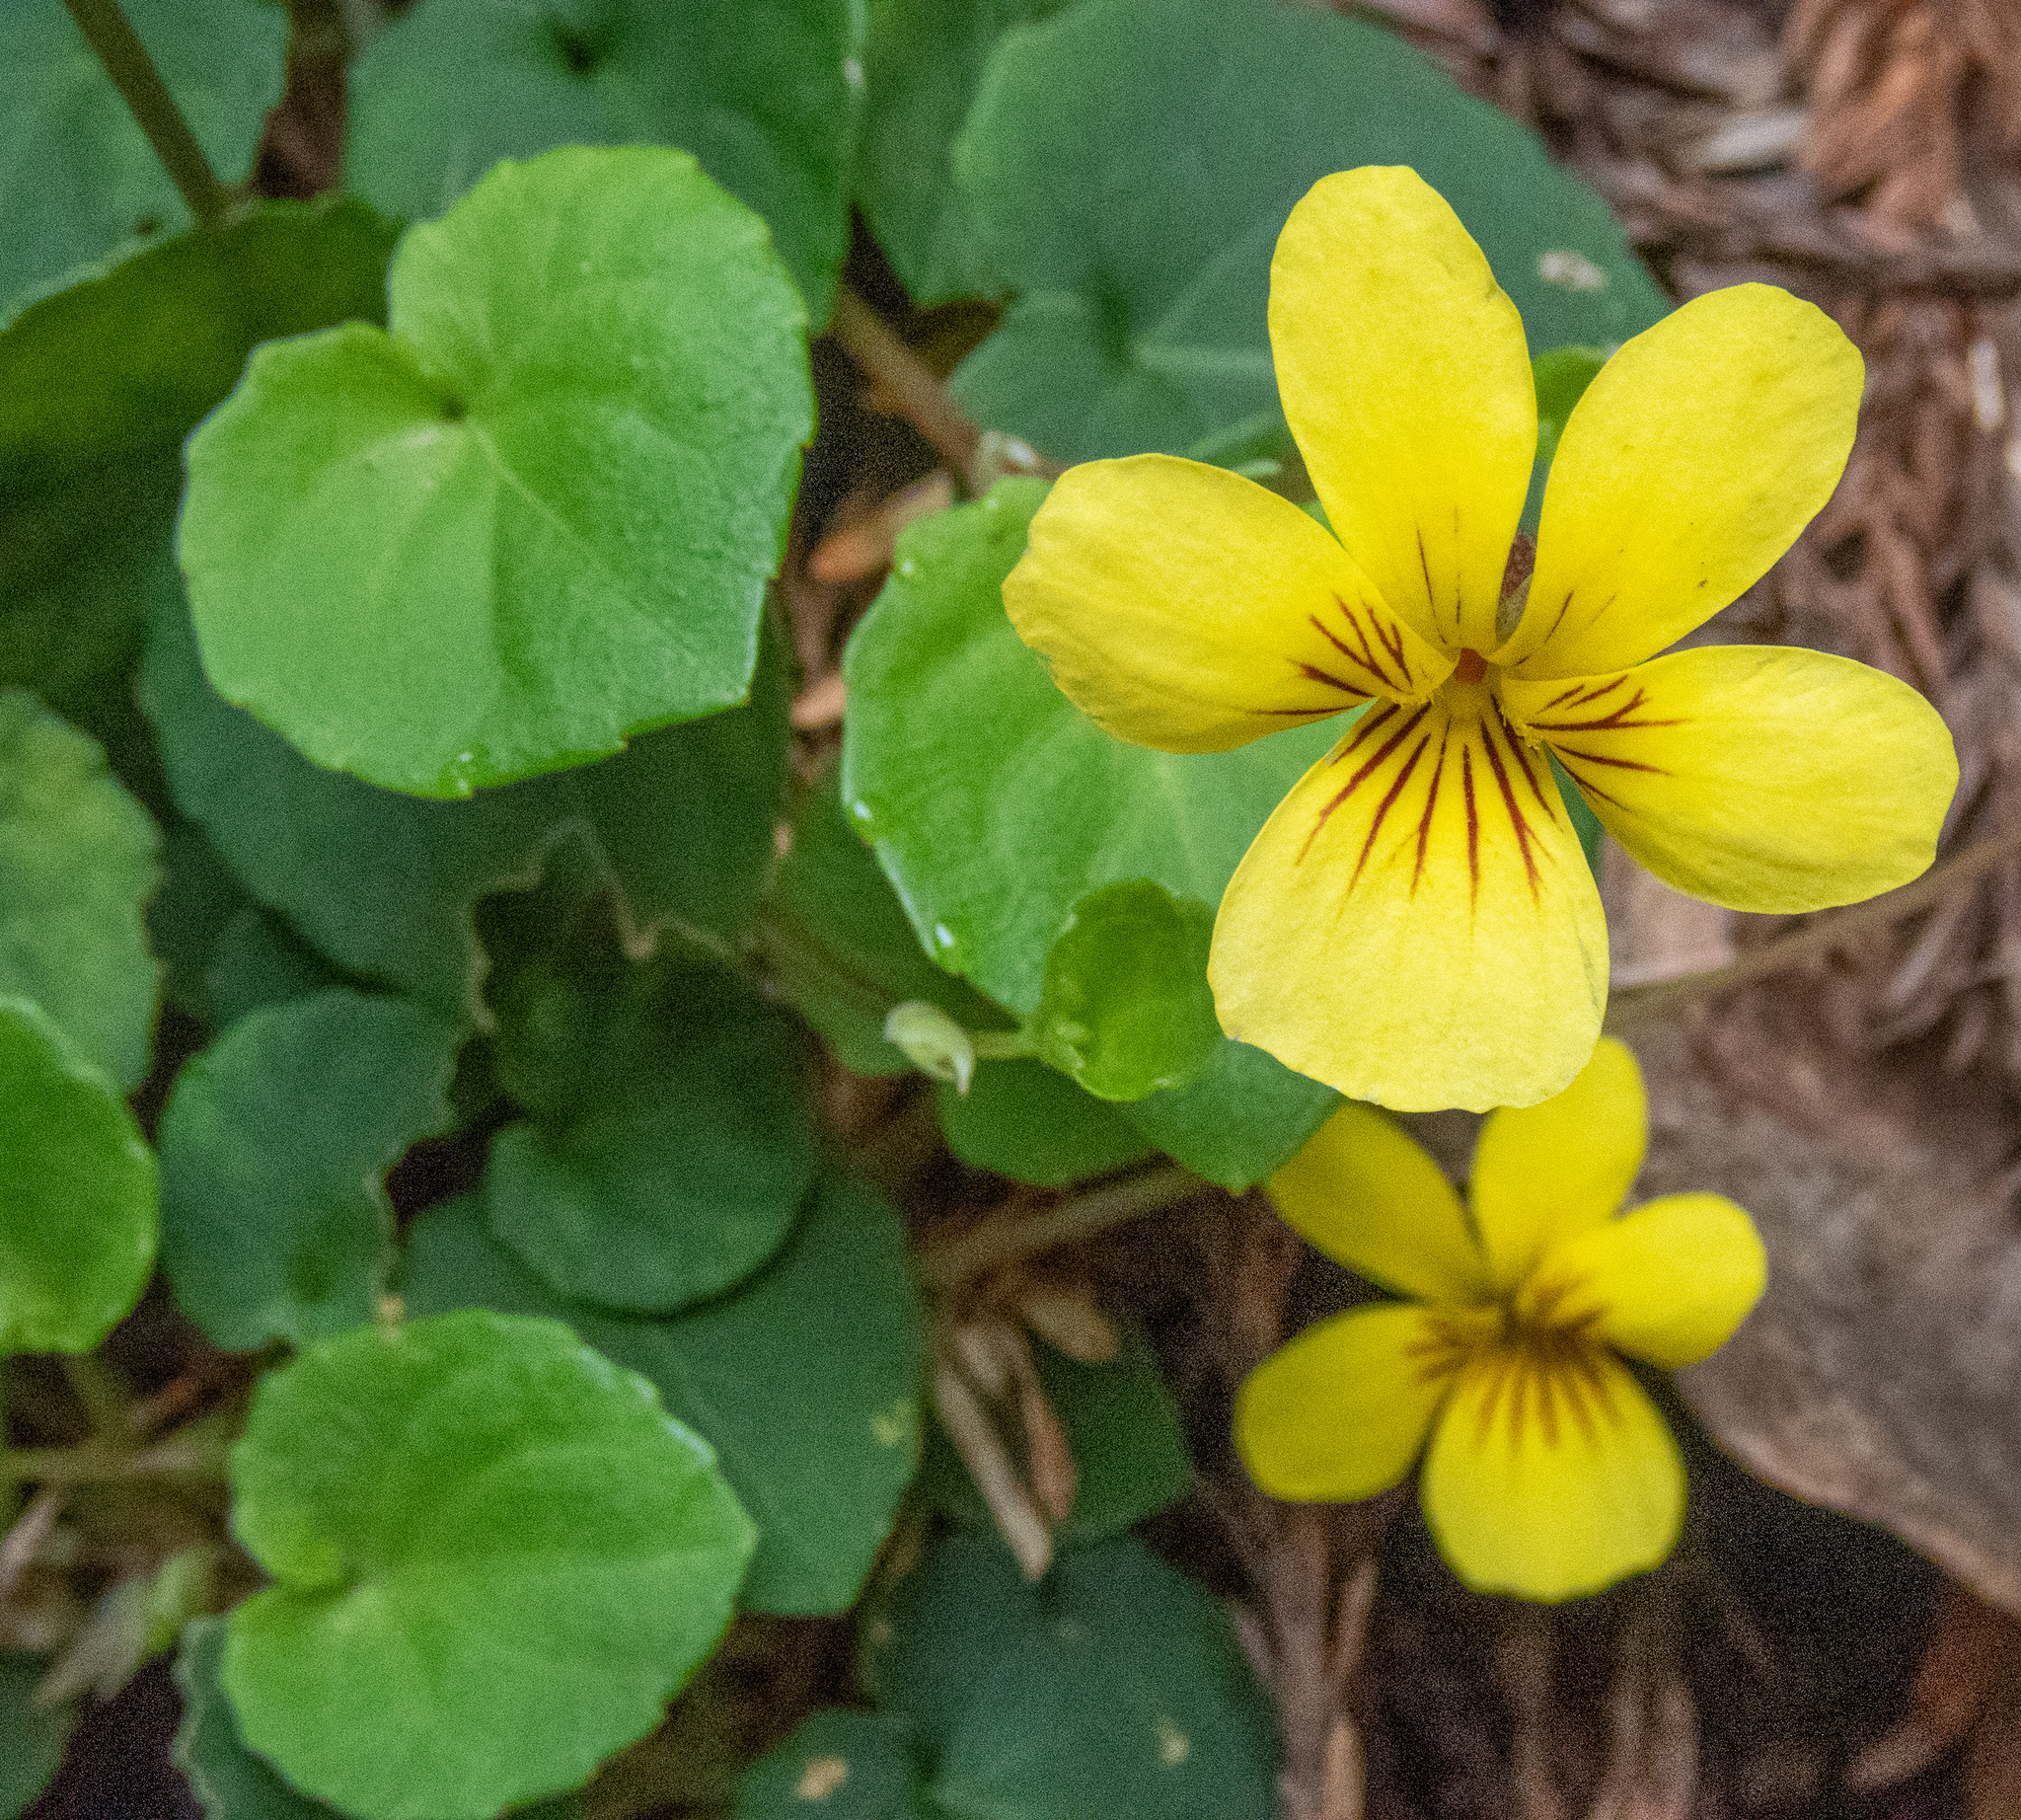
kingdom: Plantae
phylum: Tracheophyta
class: Magnoliopsida
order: Malpighiales
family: Violaceae
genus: Viola
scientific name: Viola sempervirens
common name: Evergreen violet
